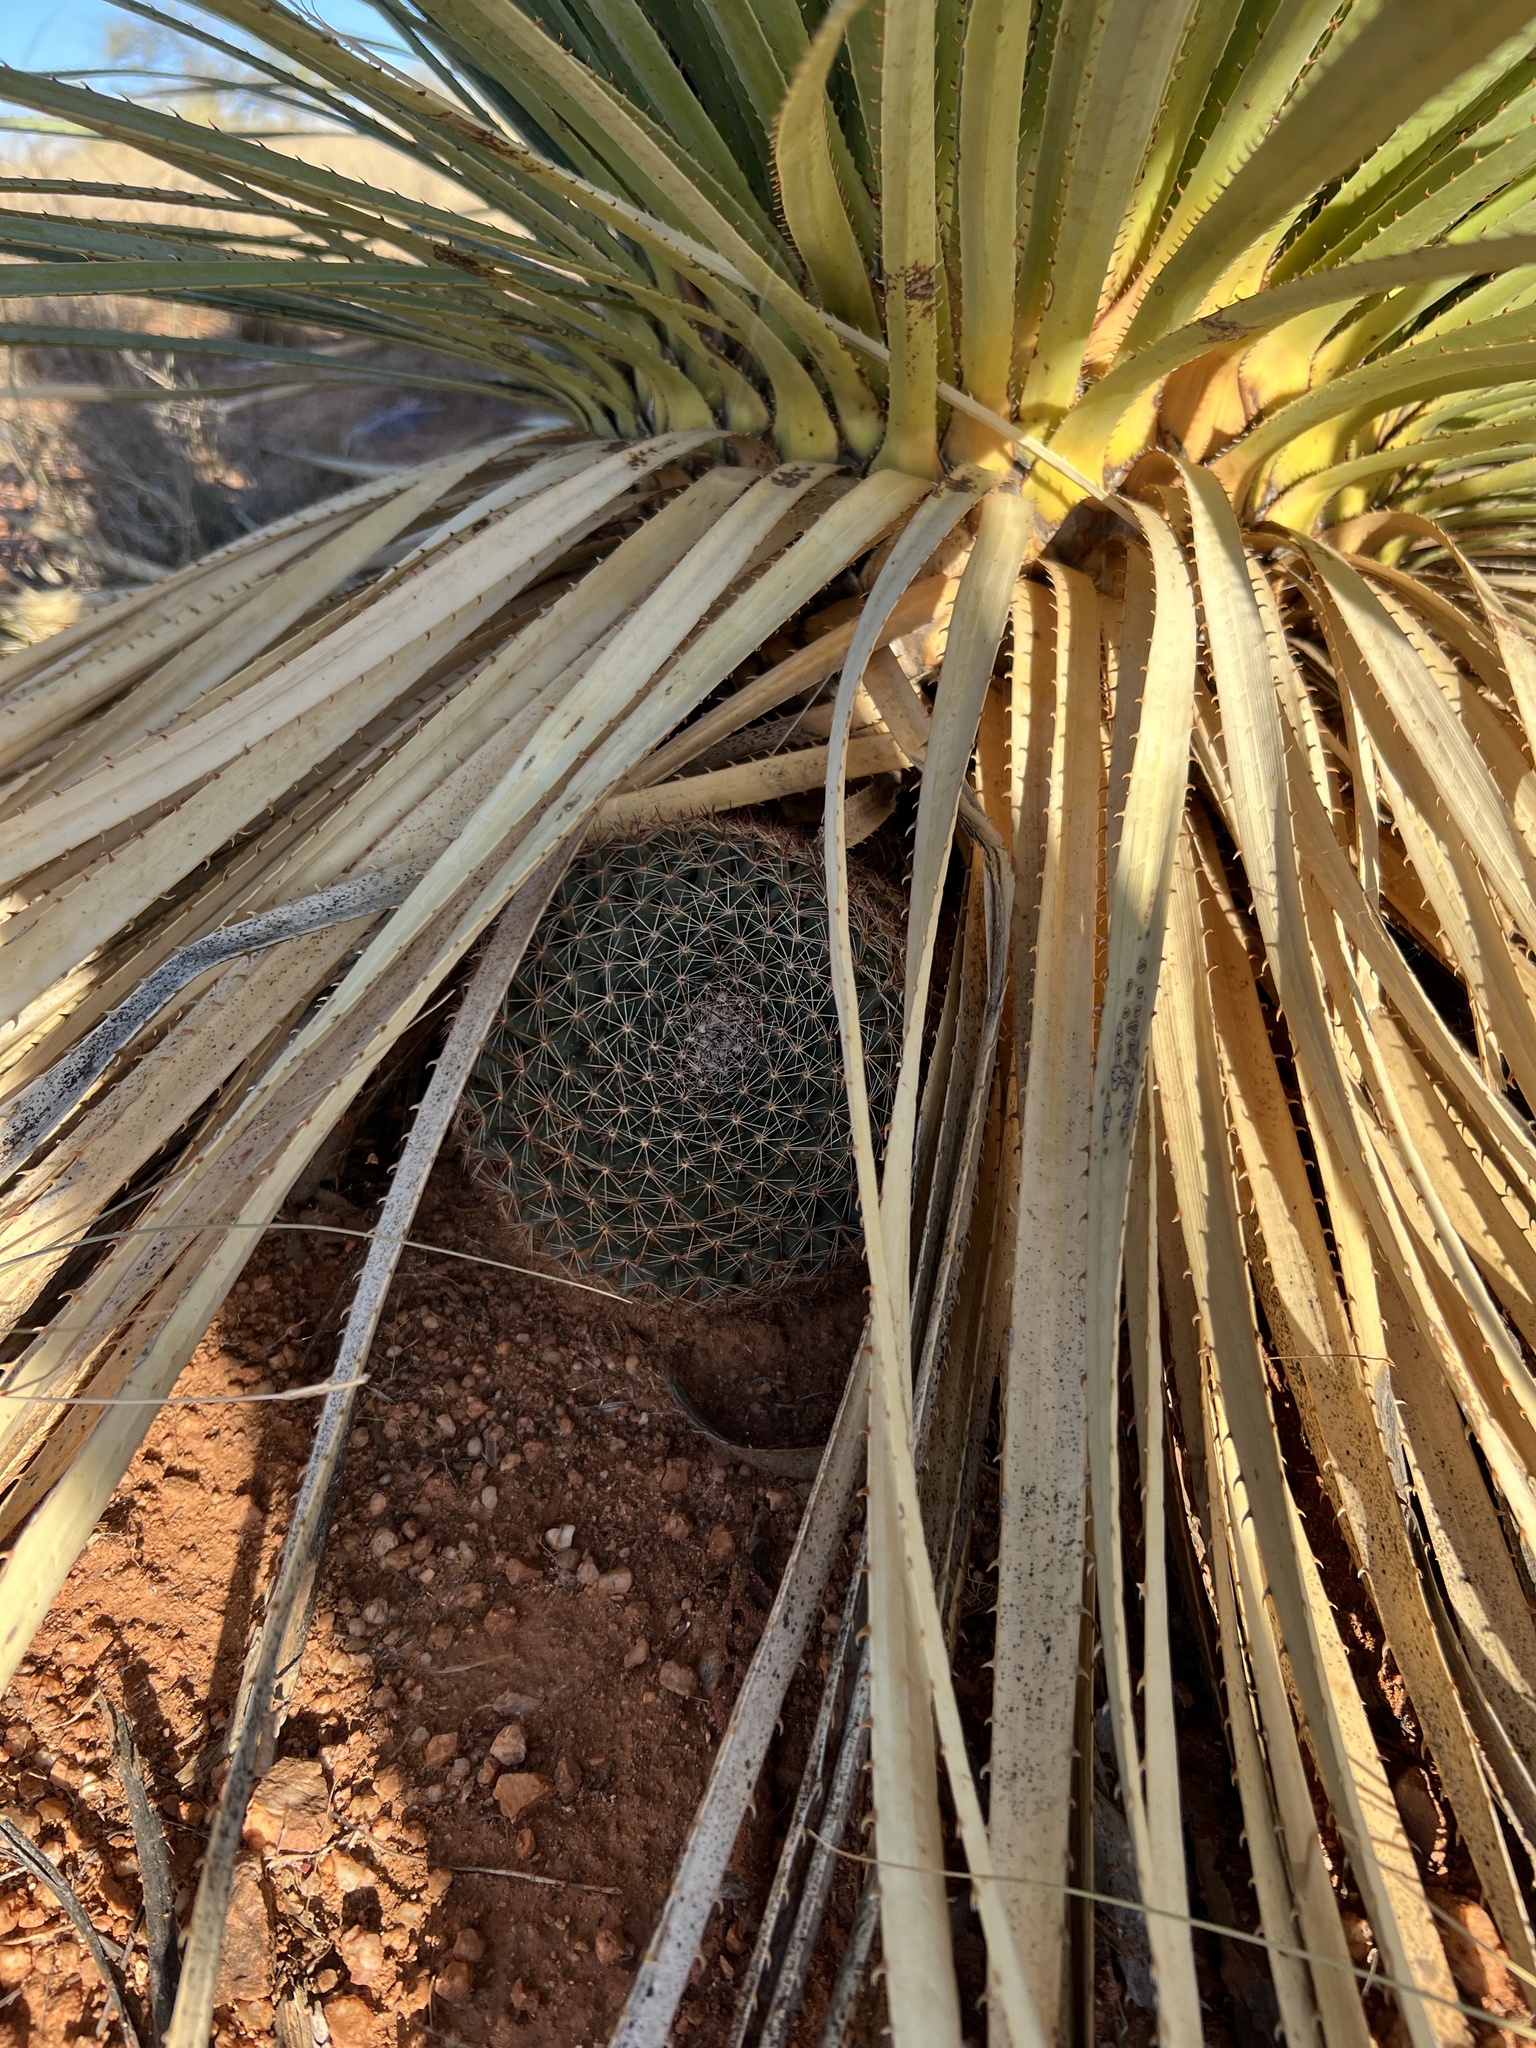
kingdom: Plantae
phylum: Tracheophyta
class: Magnoliopsida
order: Caryophyllales
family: Cactaceae
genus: Mammillaria
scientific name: Mammillaria heyderi
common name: Little nipple cactus
